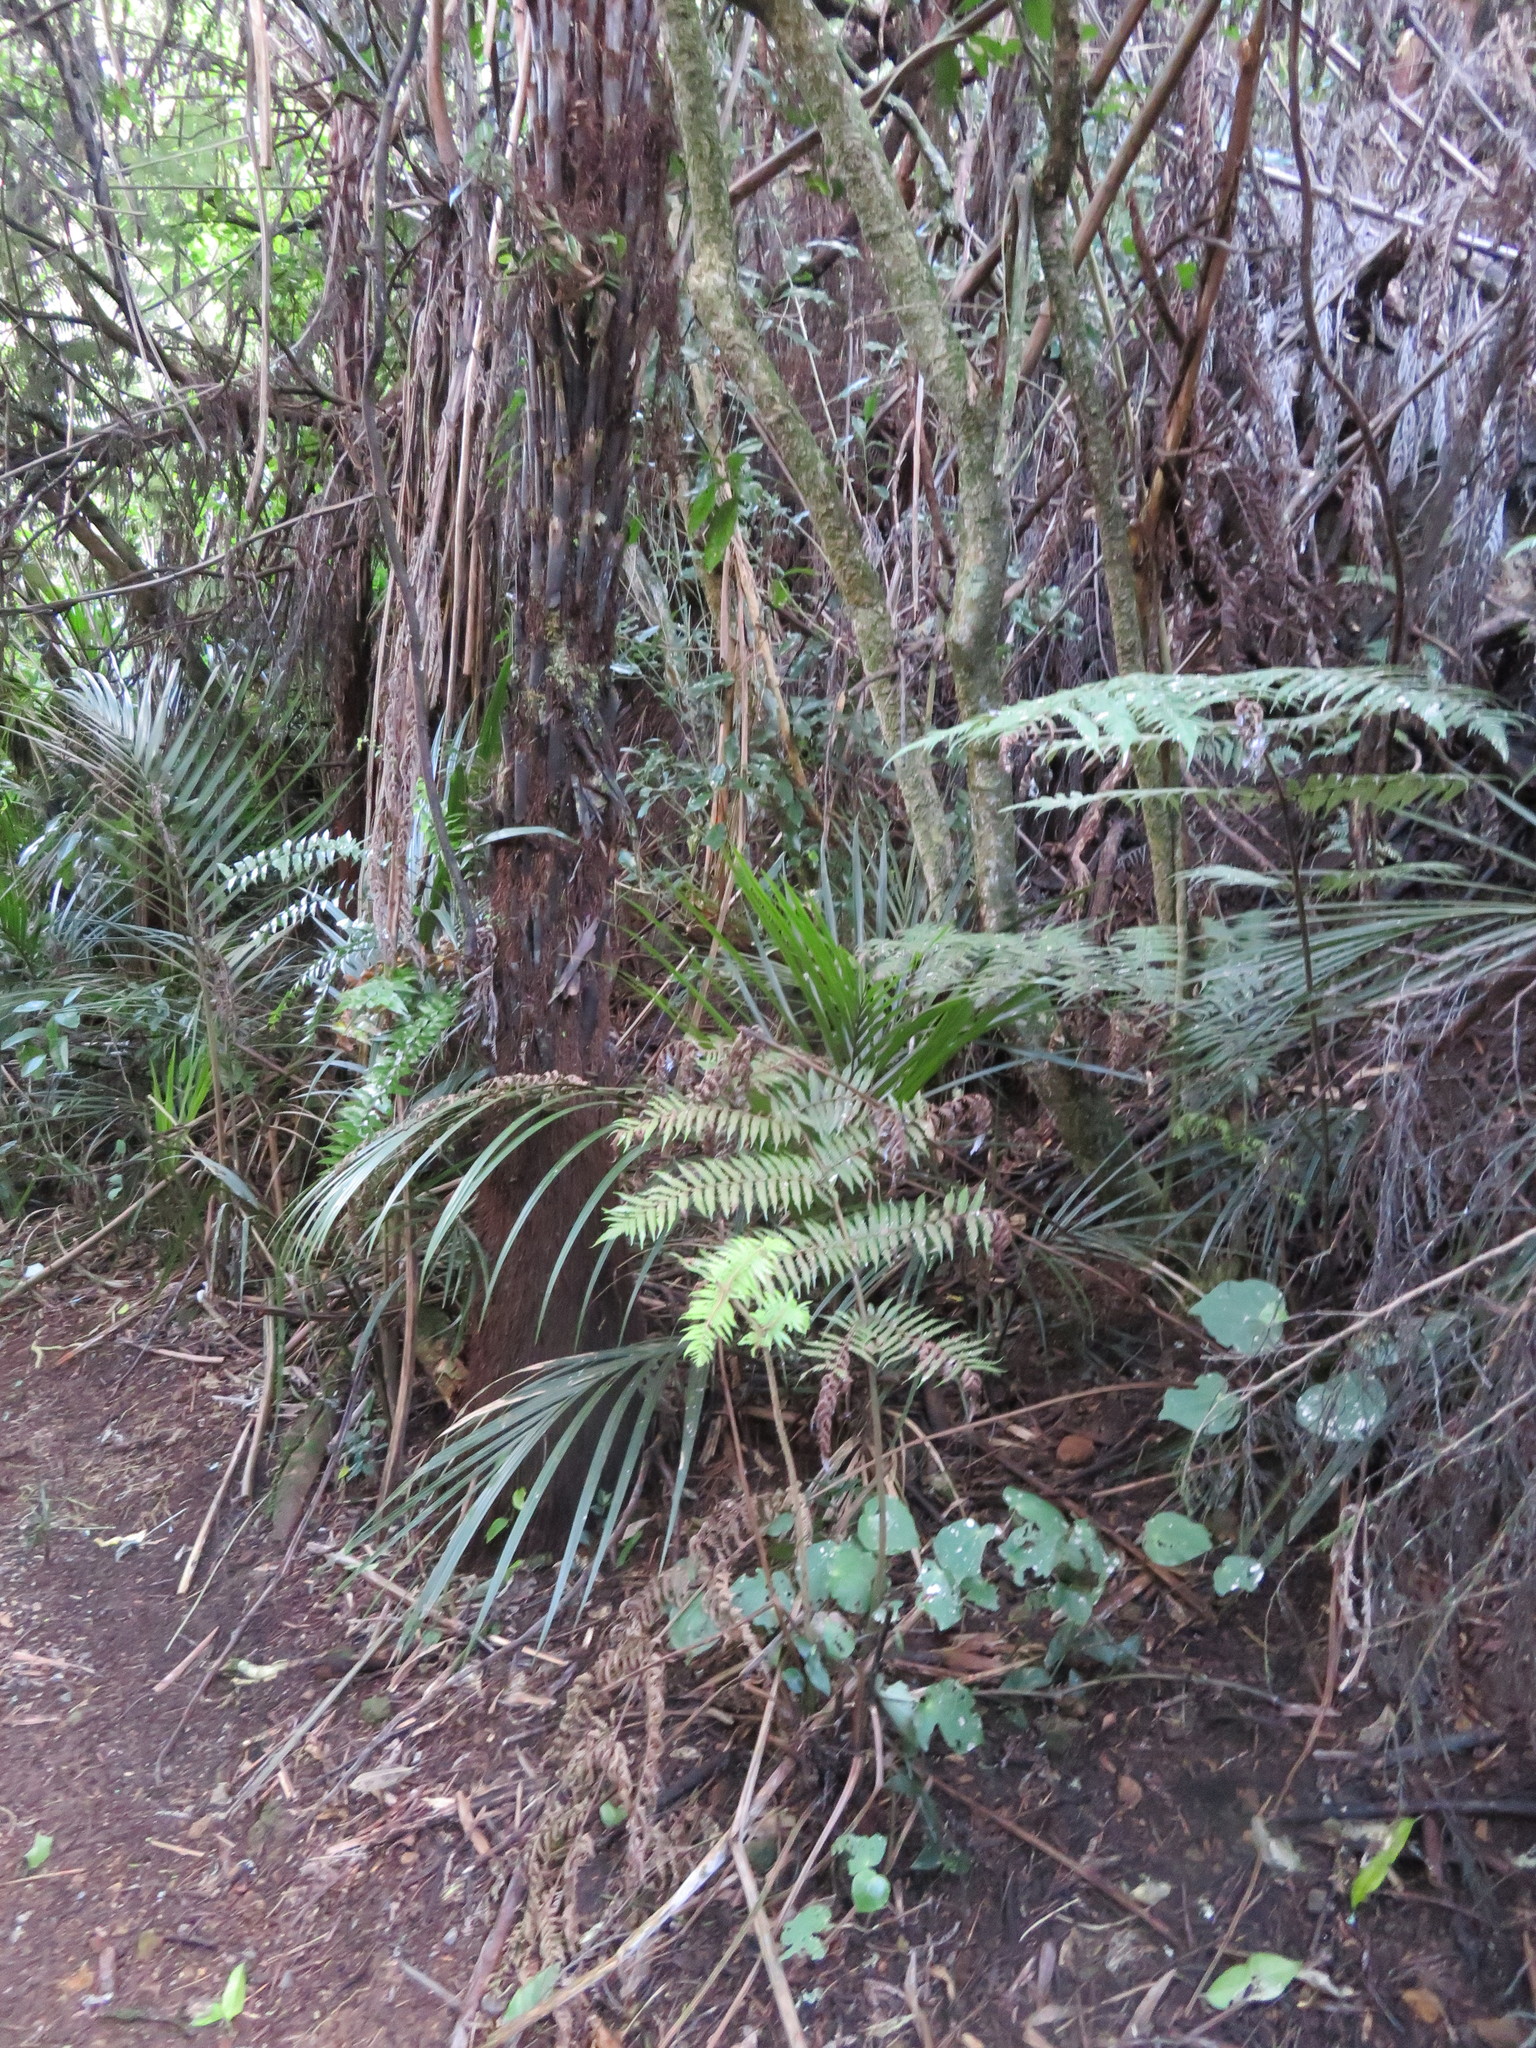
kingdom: Plantae
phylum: Tracheophyta
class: Magnoliopsida
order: Piperales
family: Piperaceae
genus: Macropiper
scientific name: Macropiper excelsum
